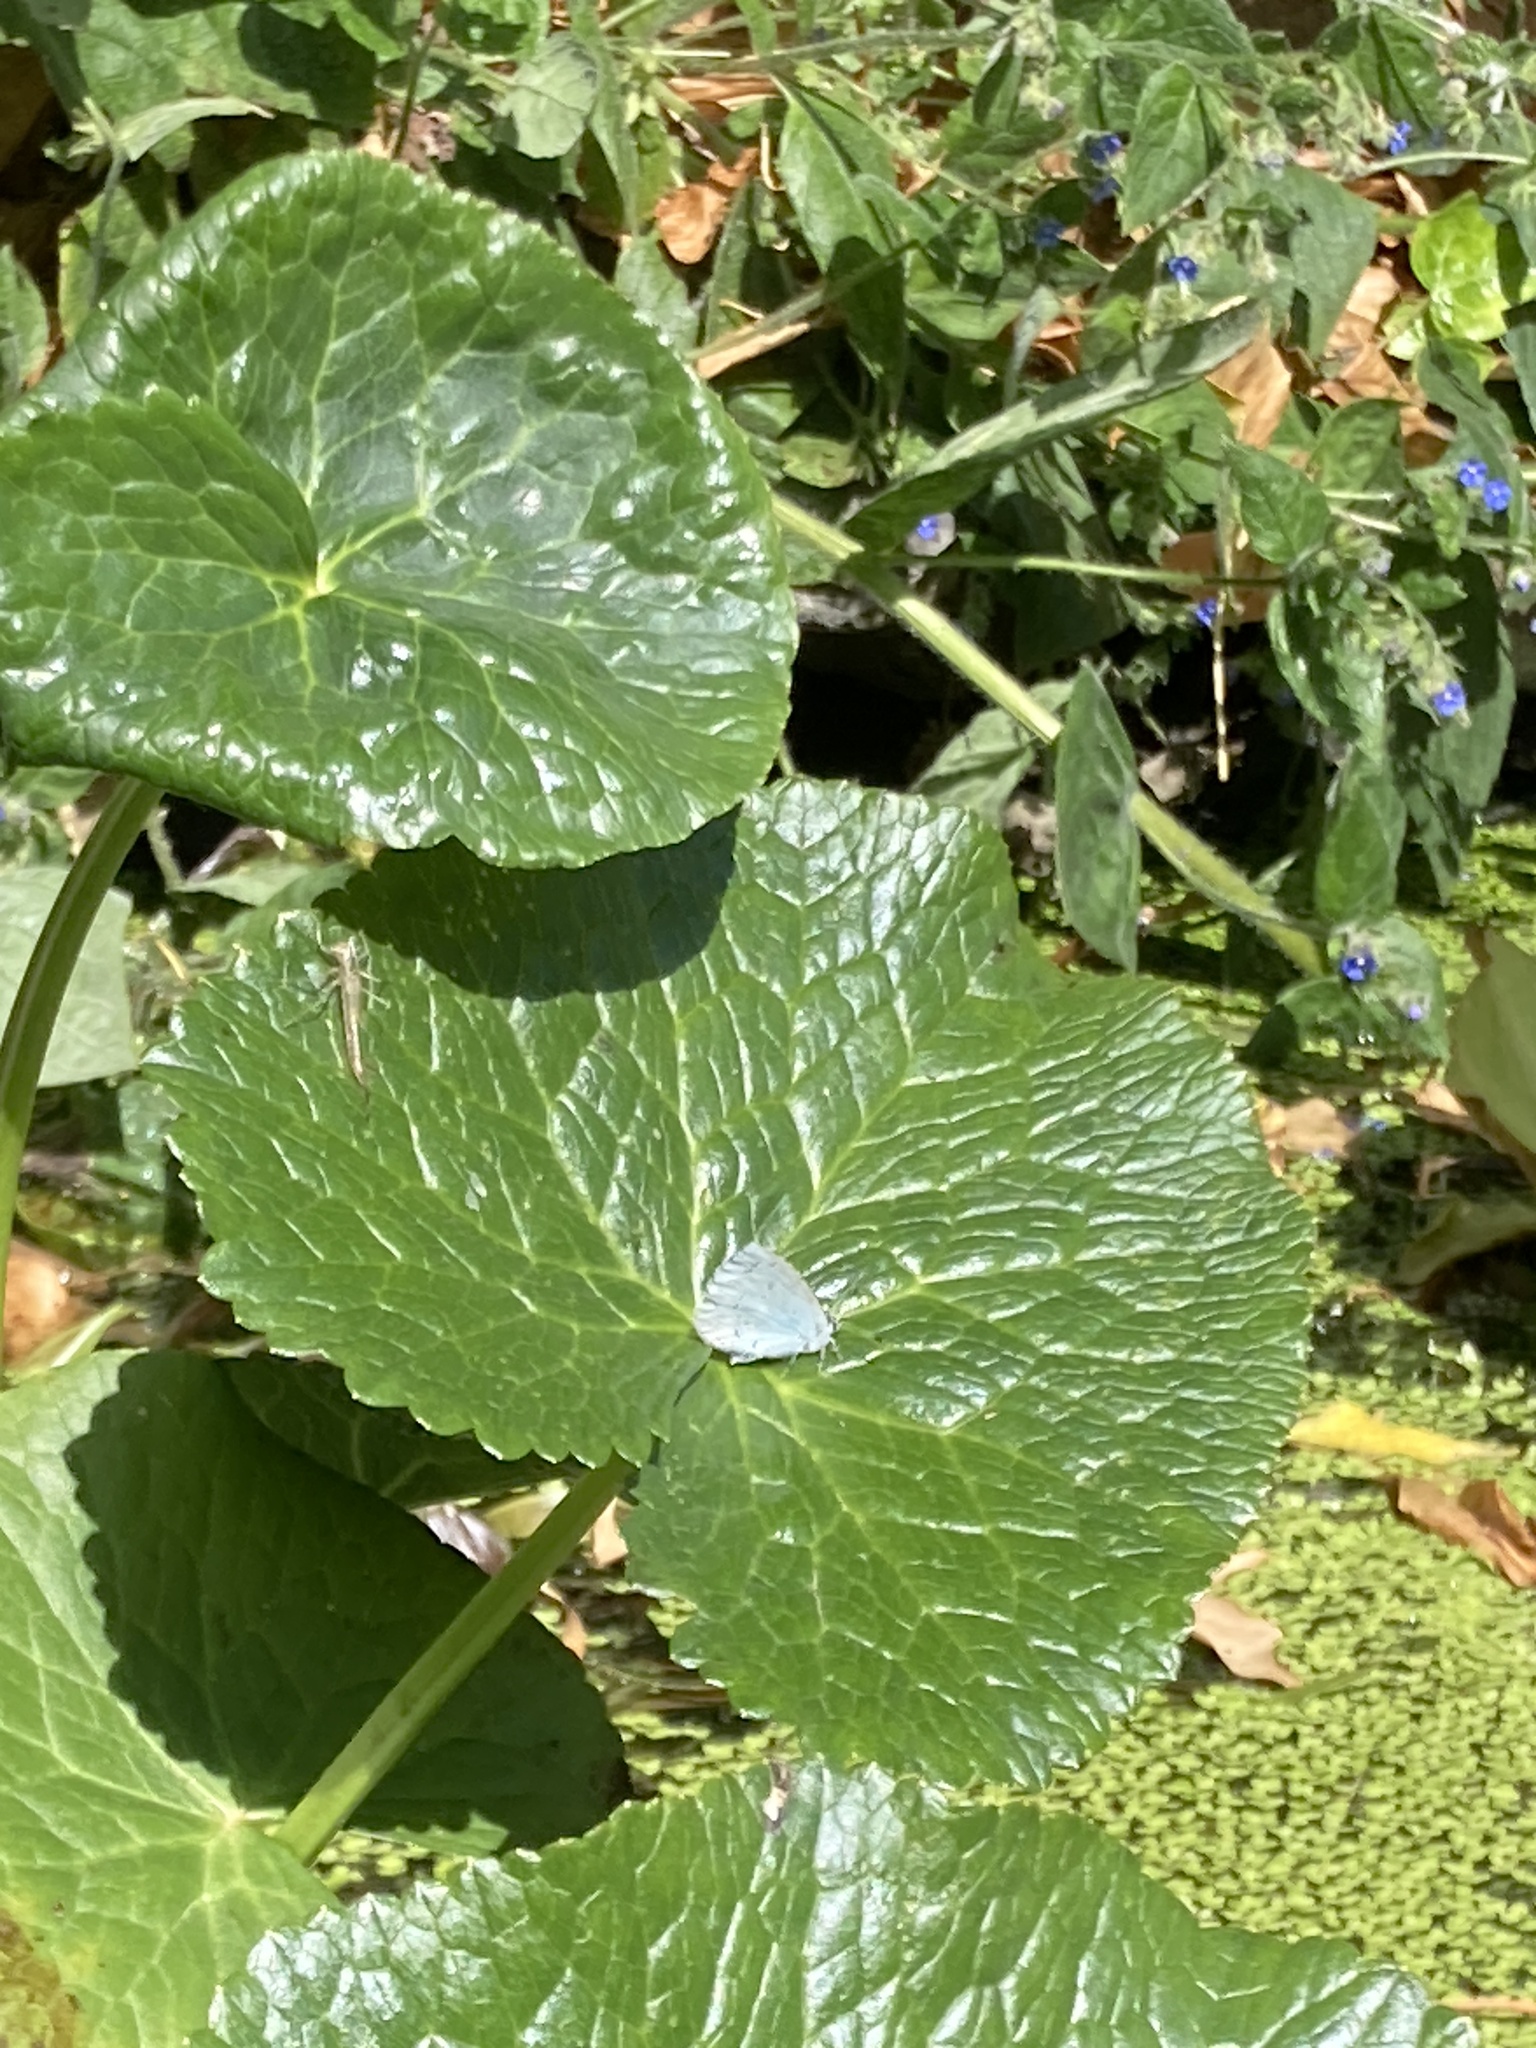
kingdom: Animalia
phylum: Arthropoda
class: Insecta
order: Lepidoptera
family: Lycaenidae
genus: Celastrina
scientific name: Celastrina argiolus
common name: Holly blue
